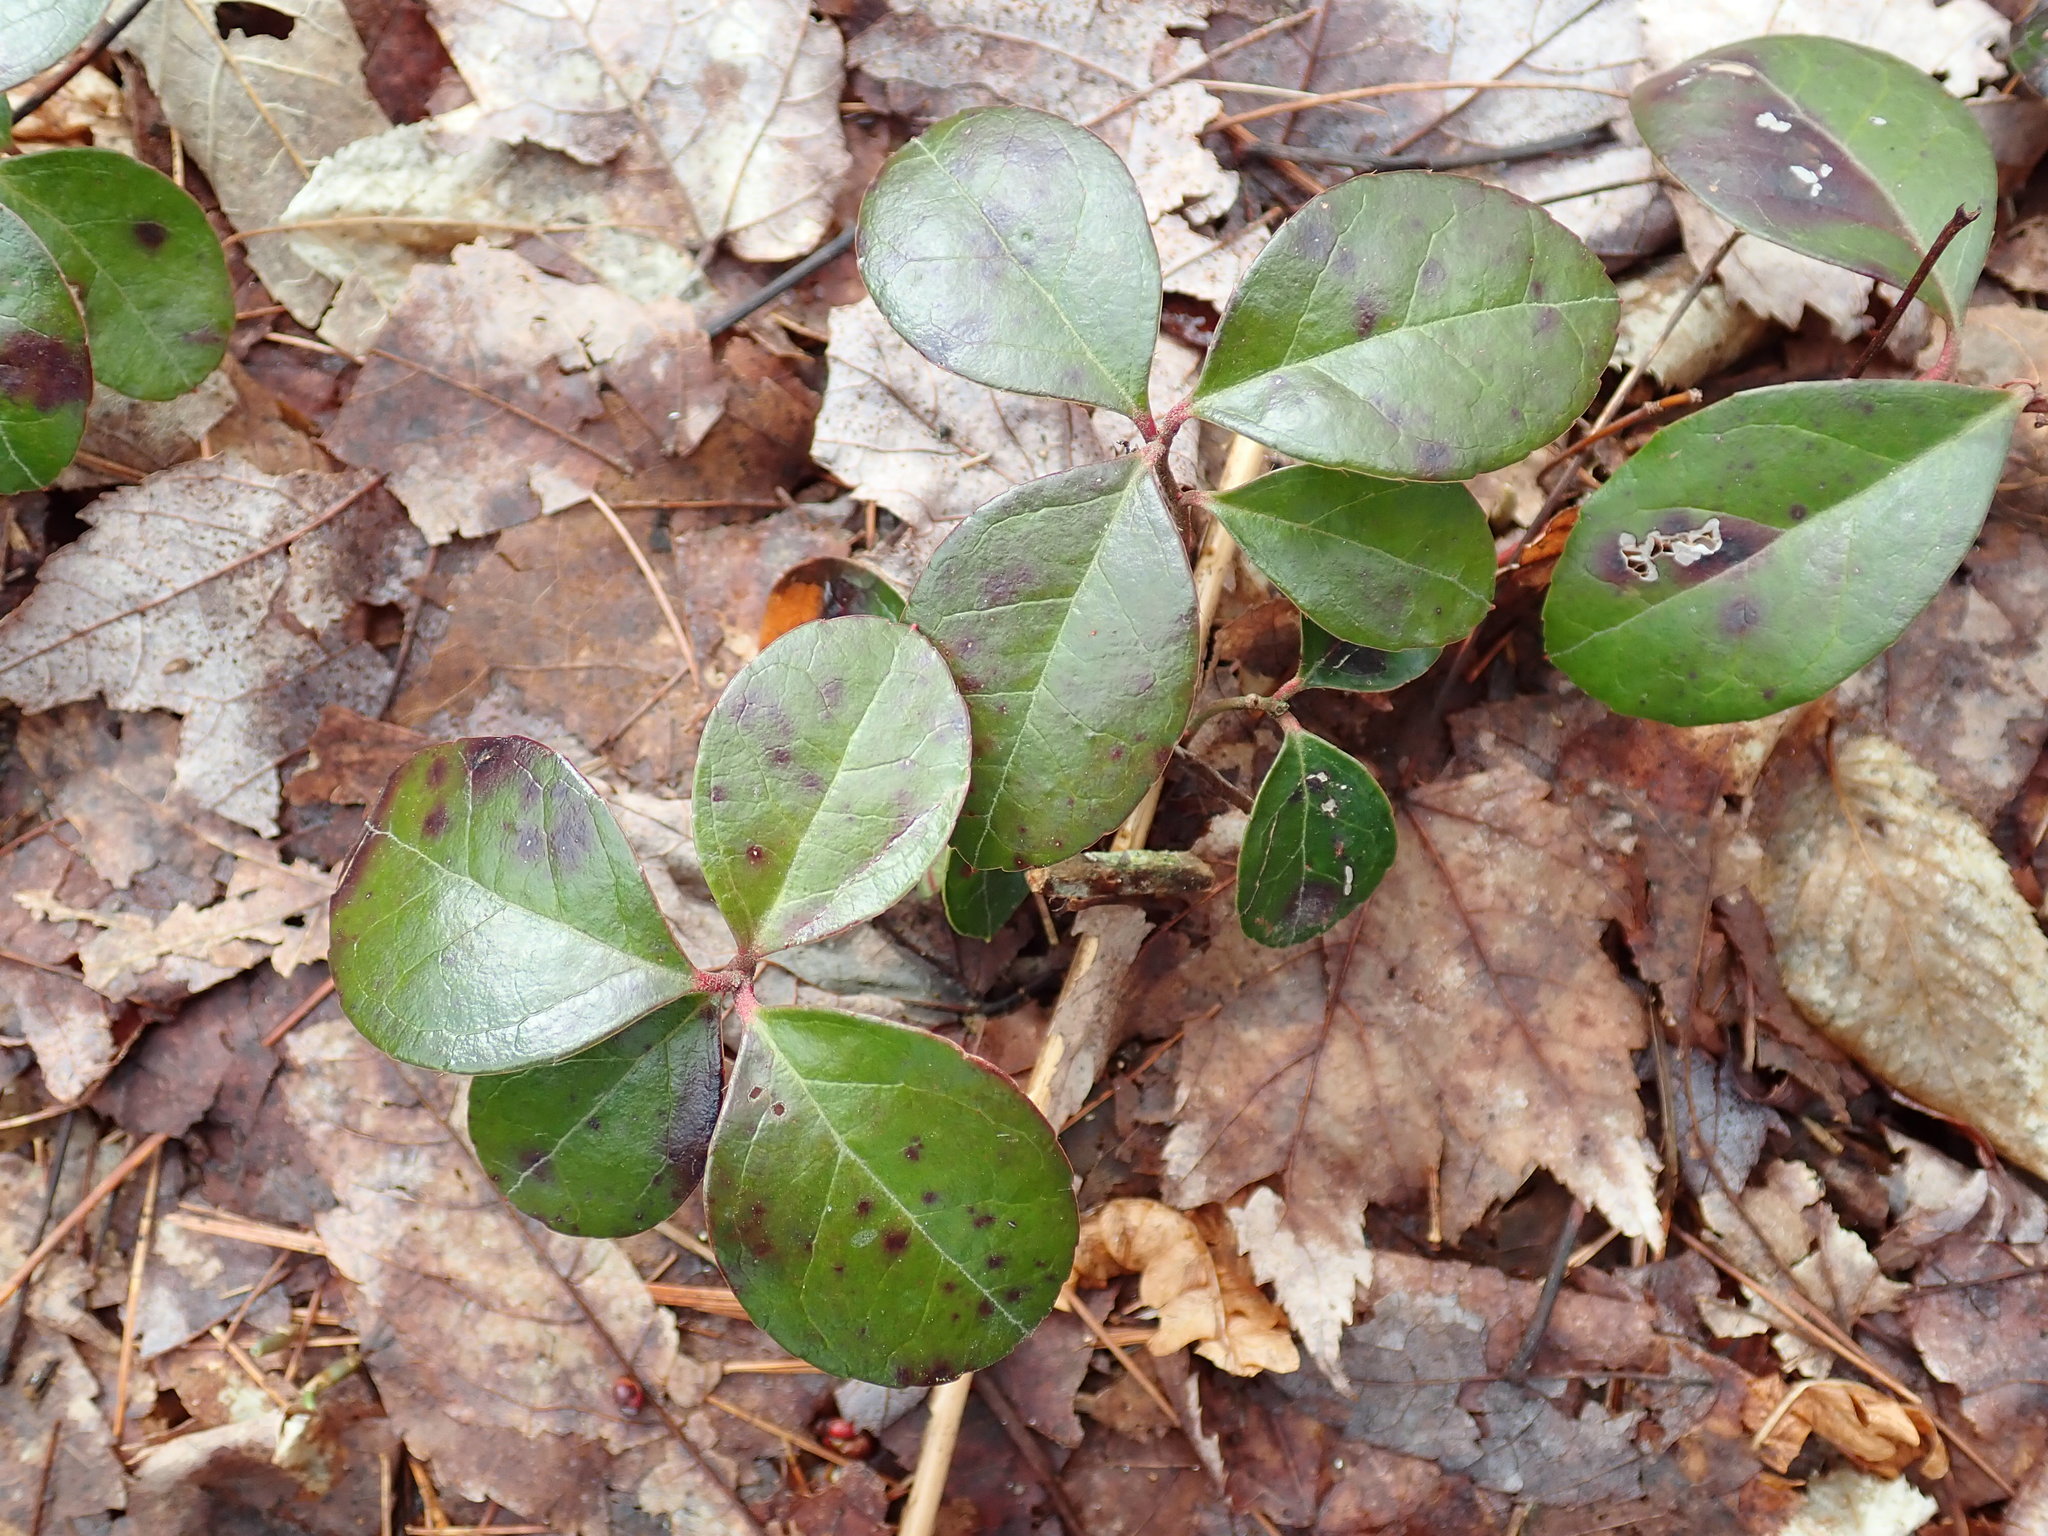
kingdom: Plantae
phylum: Tracheophyta
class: Magnoliopsida
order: Ericales
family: Ericaceae
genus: Gaultheria
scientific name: Gaultheria procumbens
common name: Checkerberry
